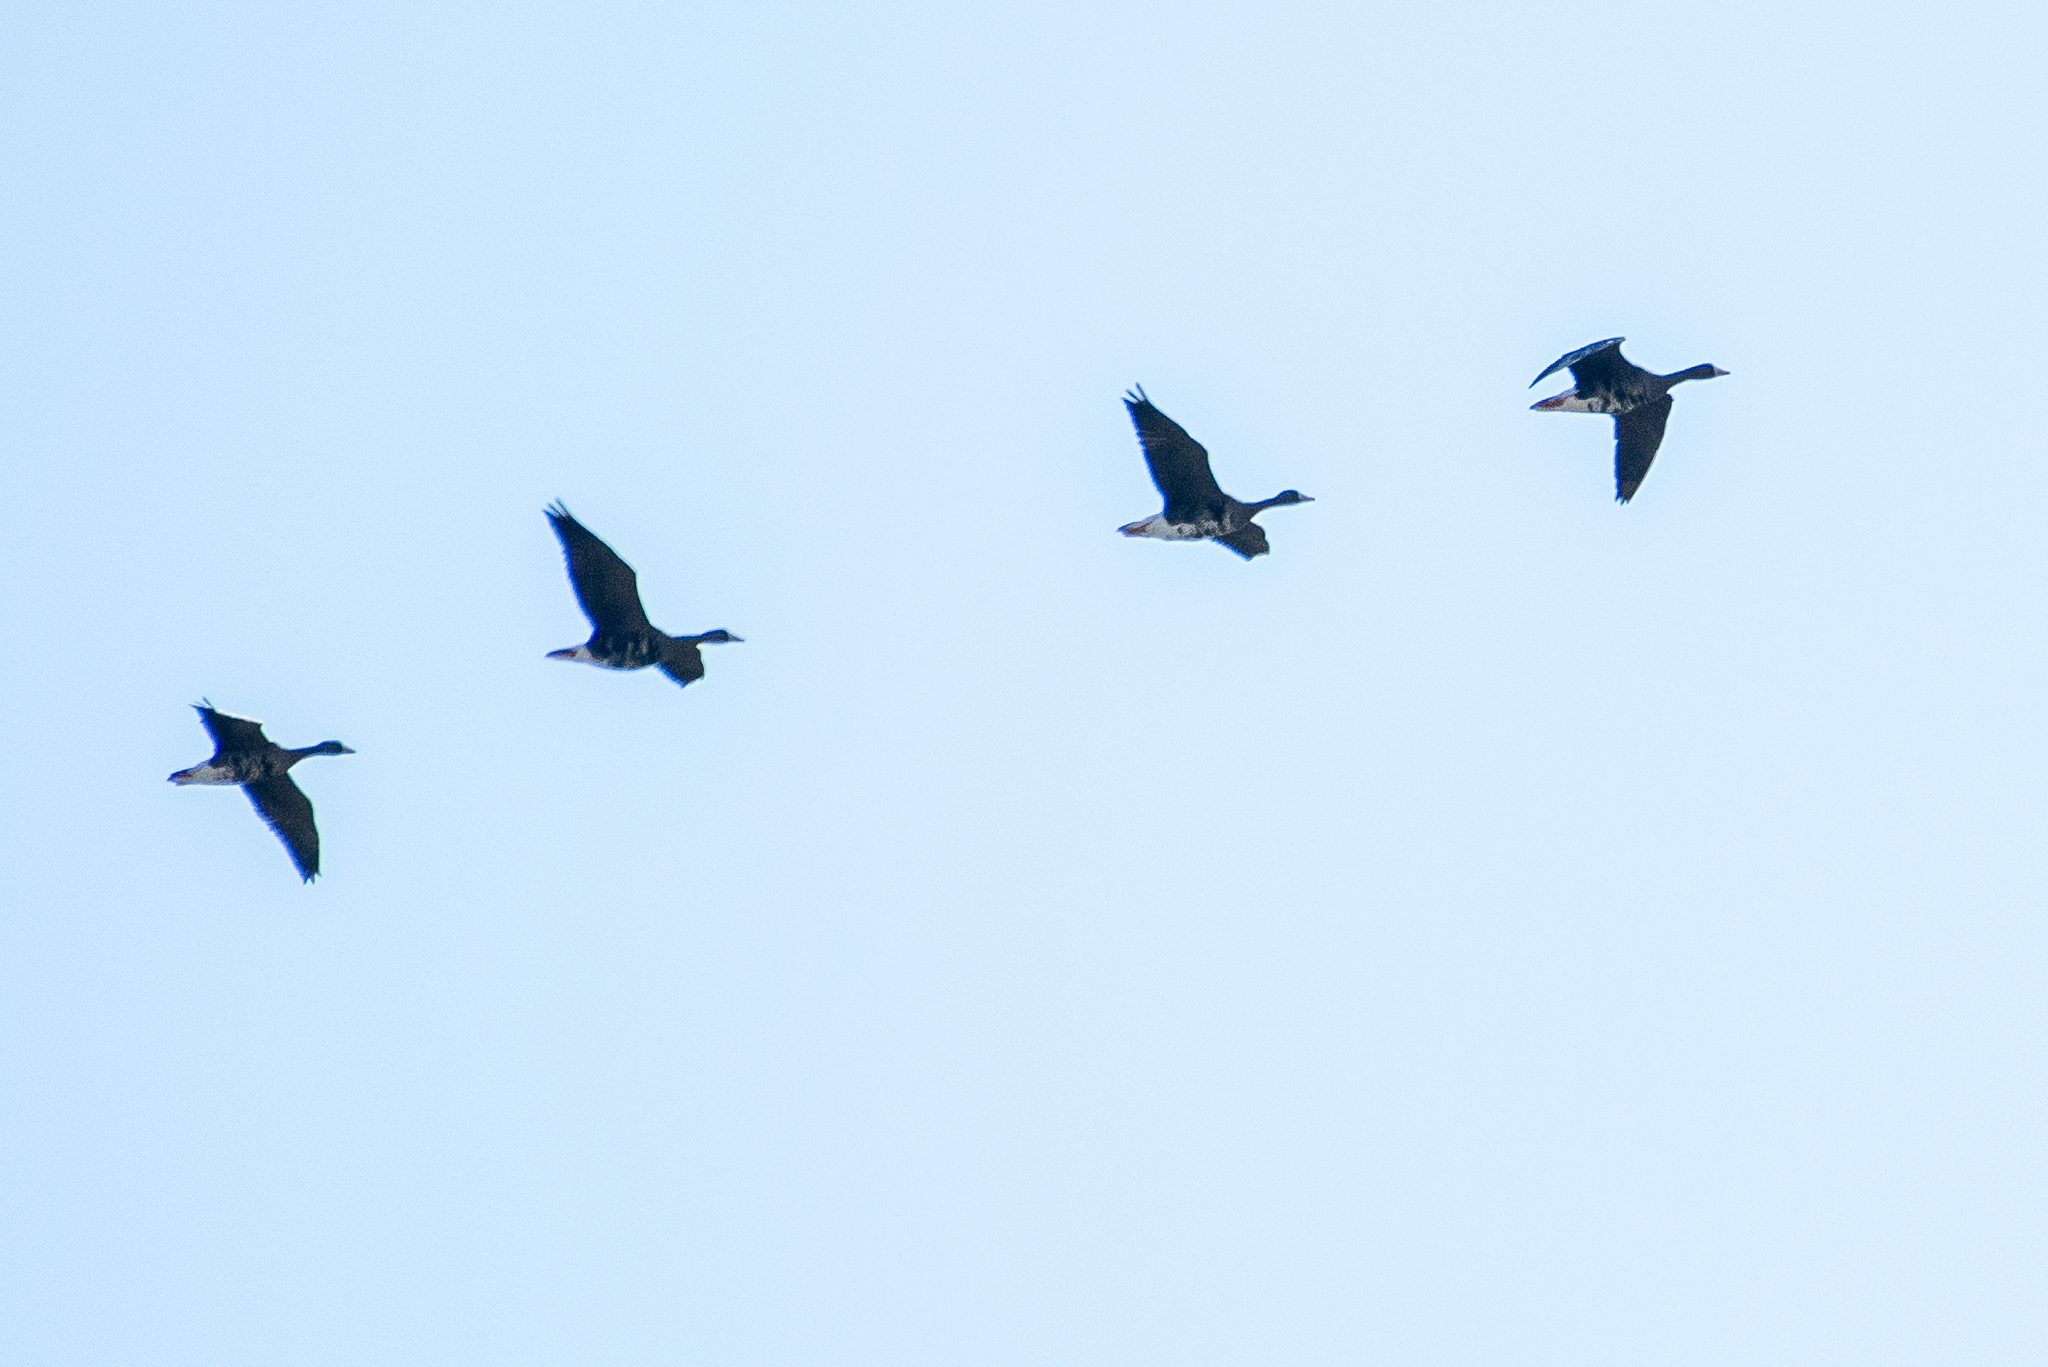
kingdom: Animalia
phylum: Chordata
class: Aves
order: Anseriformes
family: Anatidae
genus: Anser
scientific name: Anser albifrons
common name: Greater white-fronted goose
